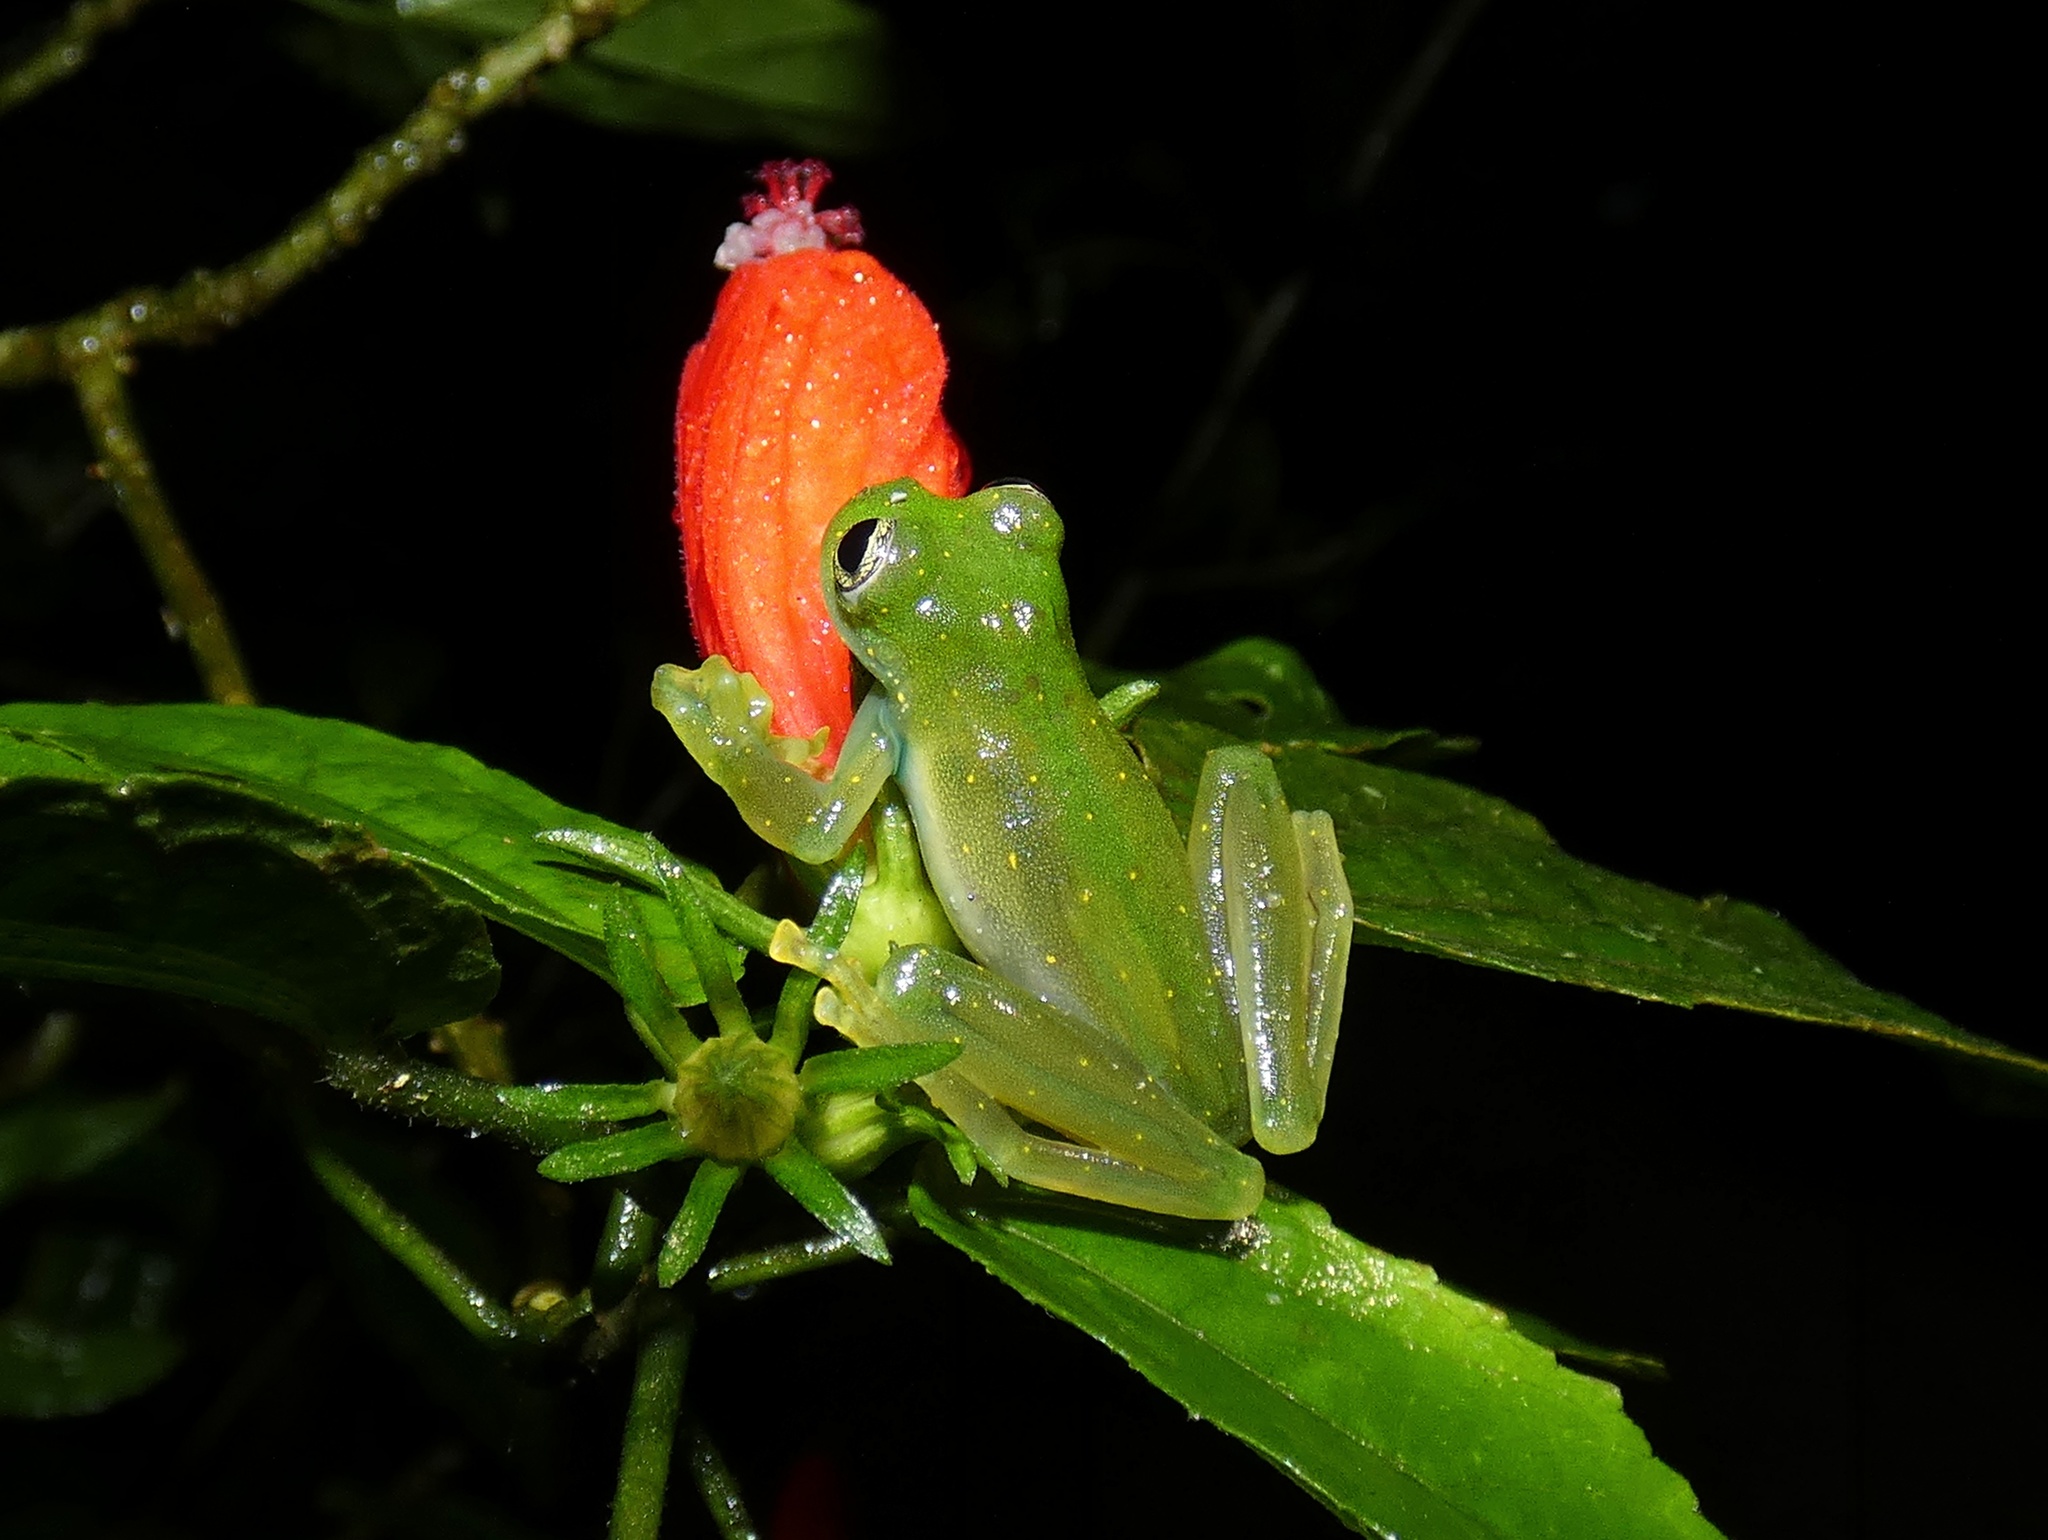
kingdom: Animalia
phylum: Chordata
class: Amphibia
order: Anura
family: Centrolenidae
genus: Sachatamia
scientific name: Sachatamia albomaculata
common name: Rana de cristal de cascada
